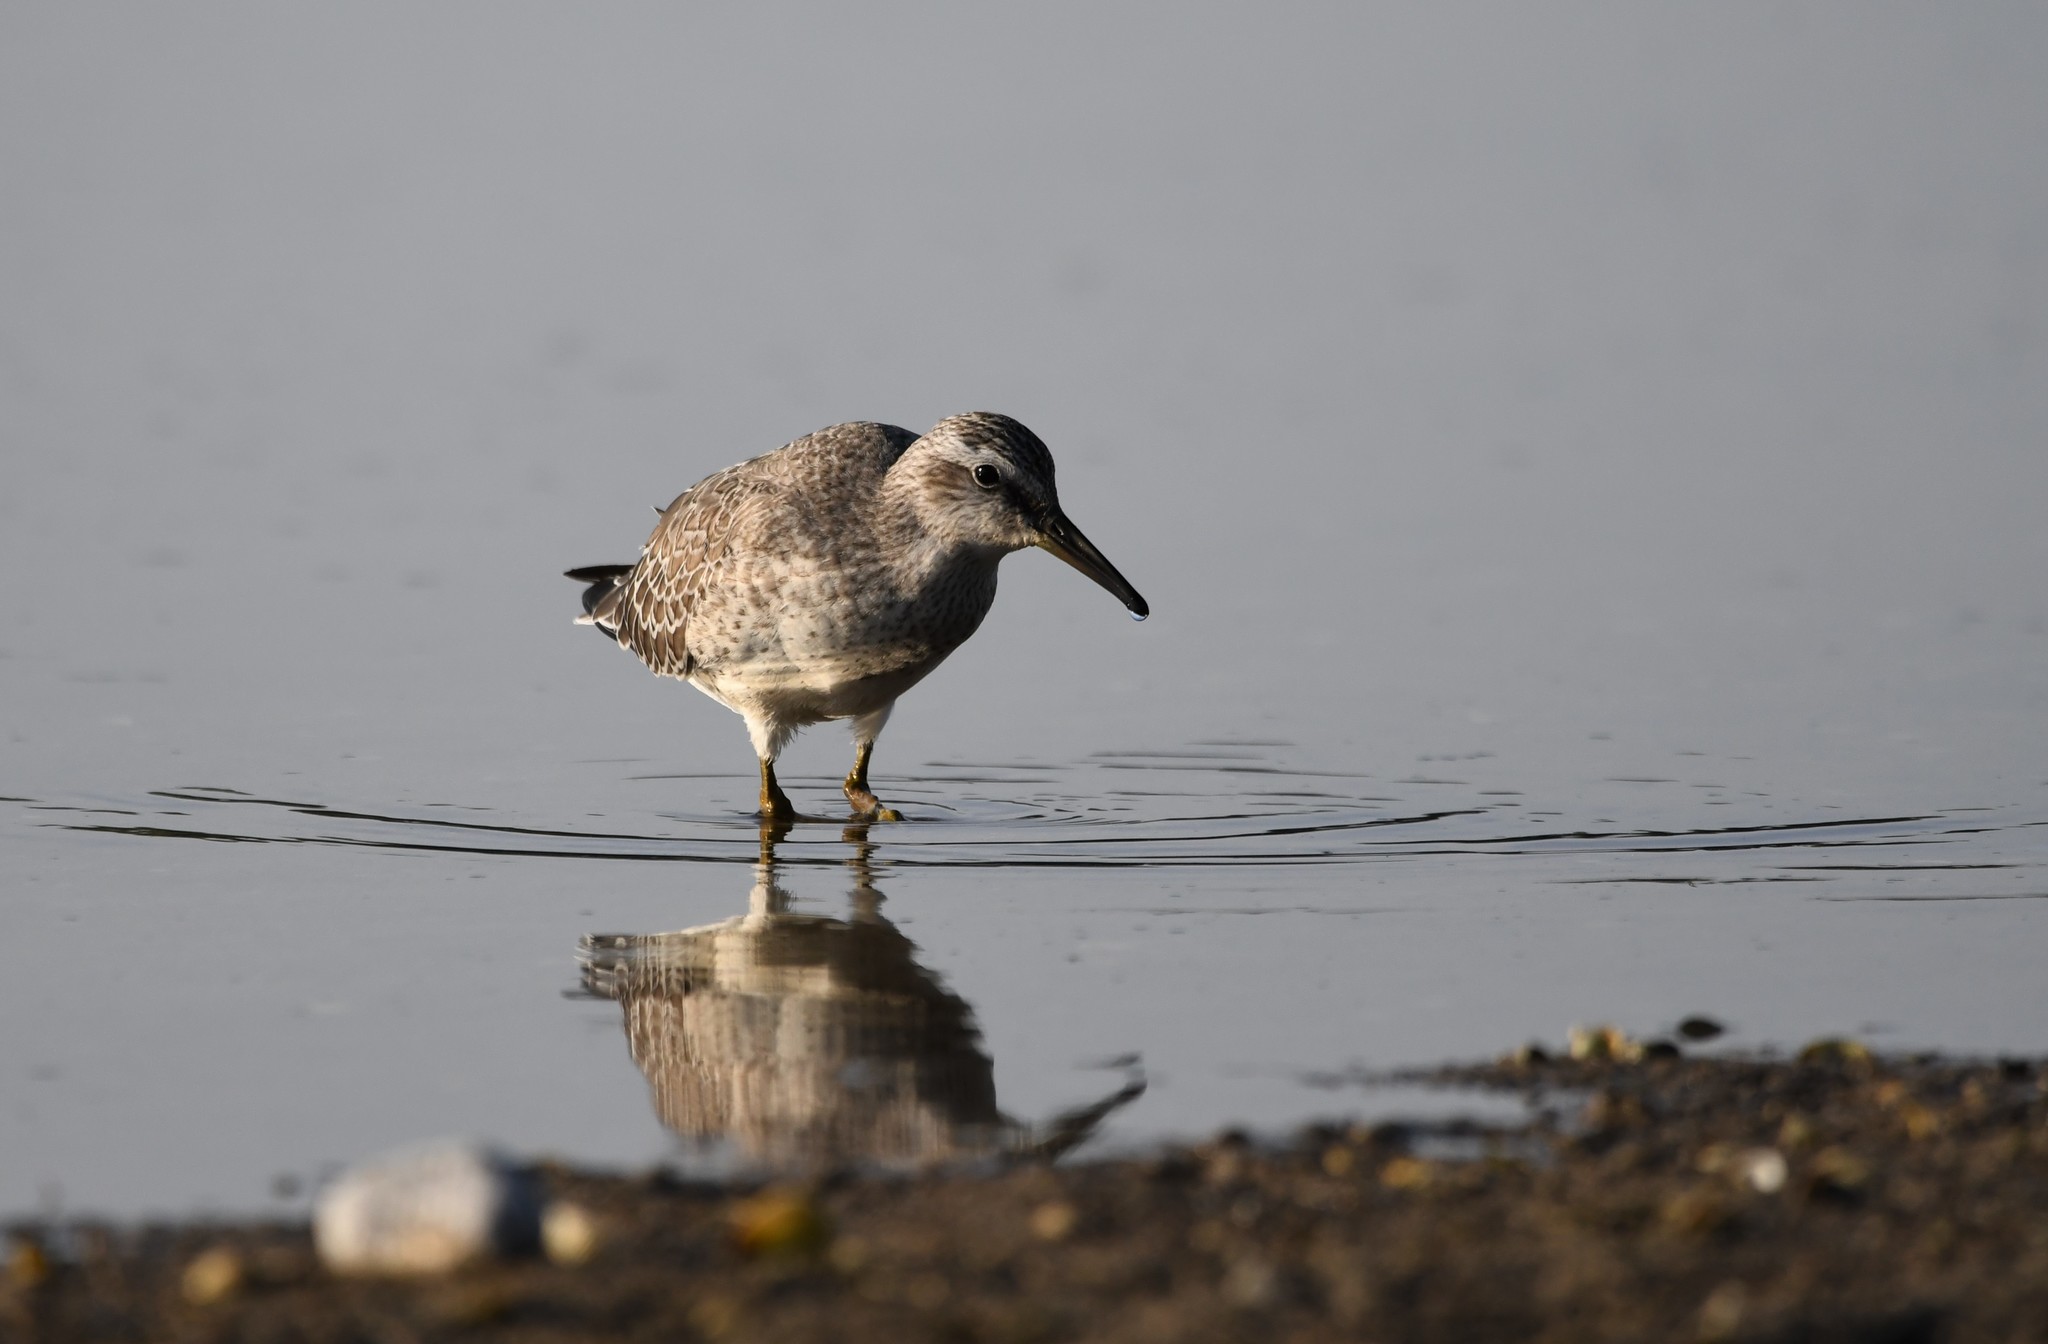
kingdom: Animalia
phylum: Chordata
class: Aves
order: Charadriiformes
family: Scolopacidae
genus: Calidris
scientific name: Calidris canutus
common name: Red knot
